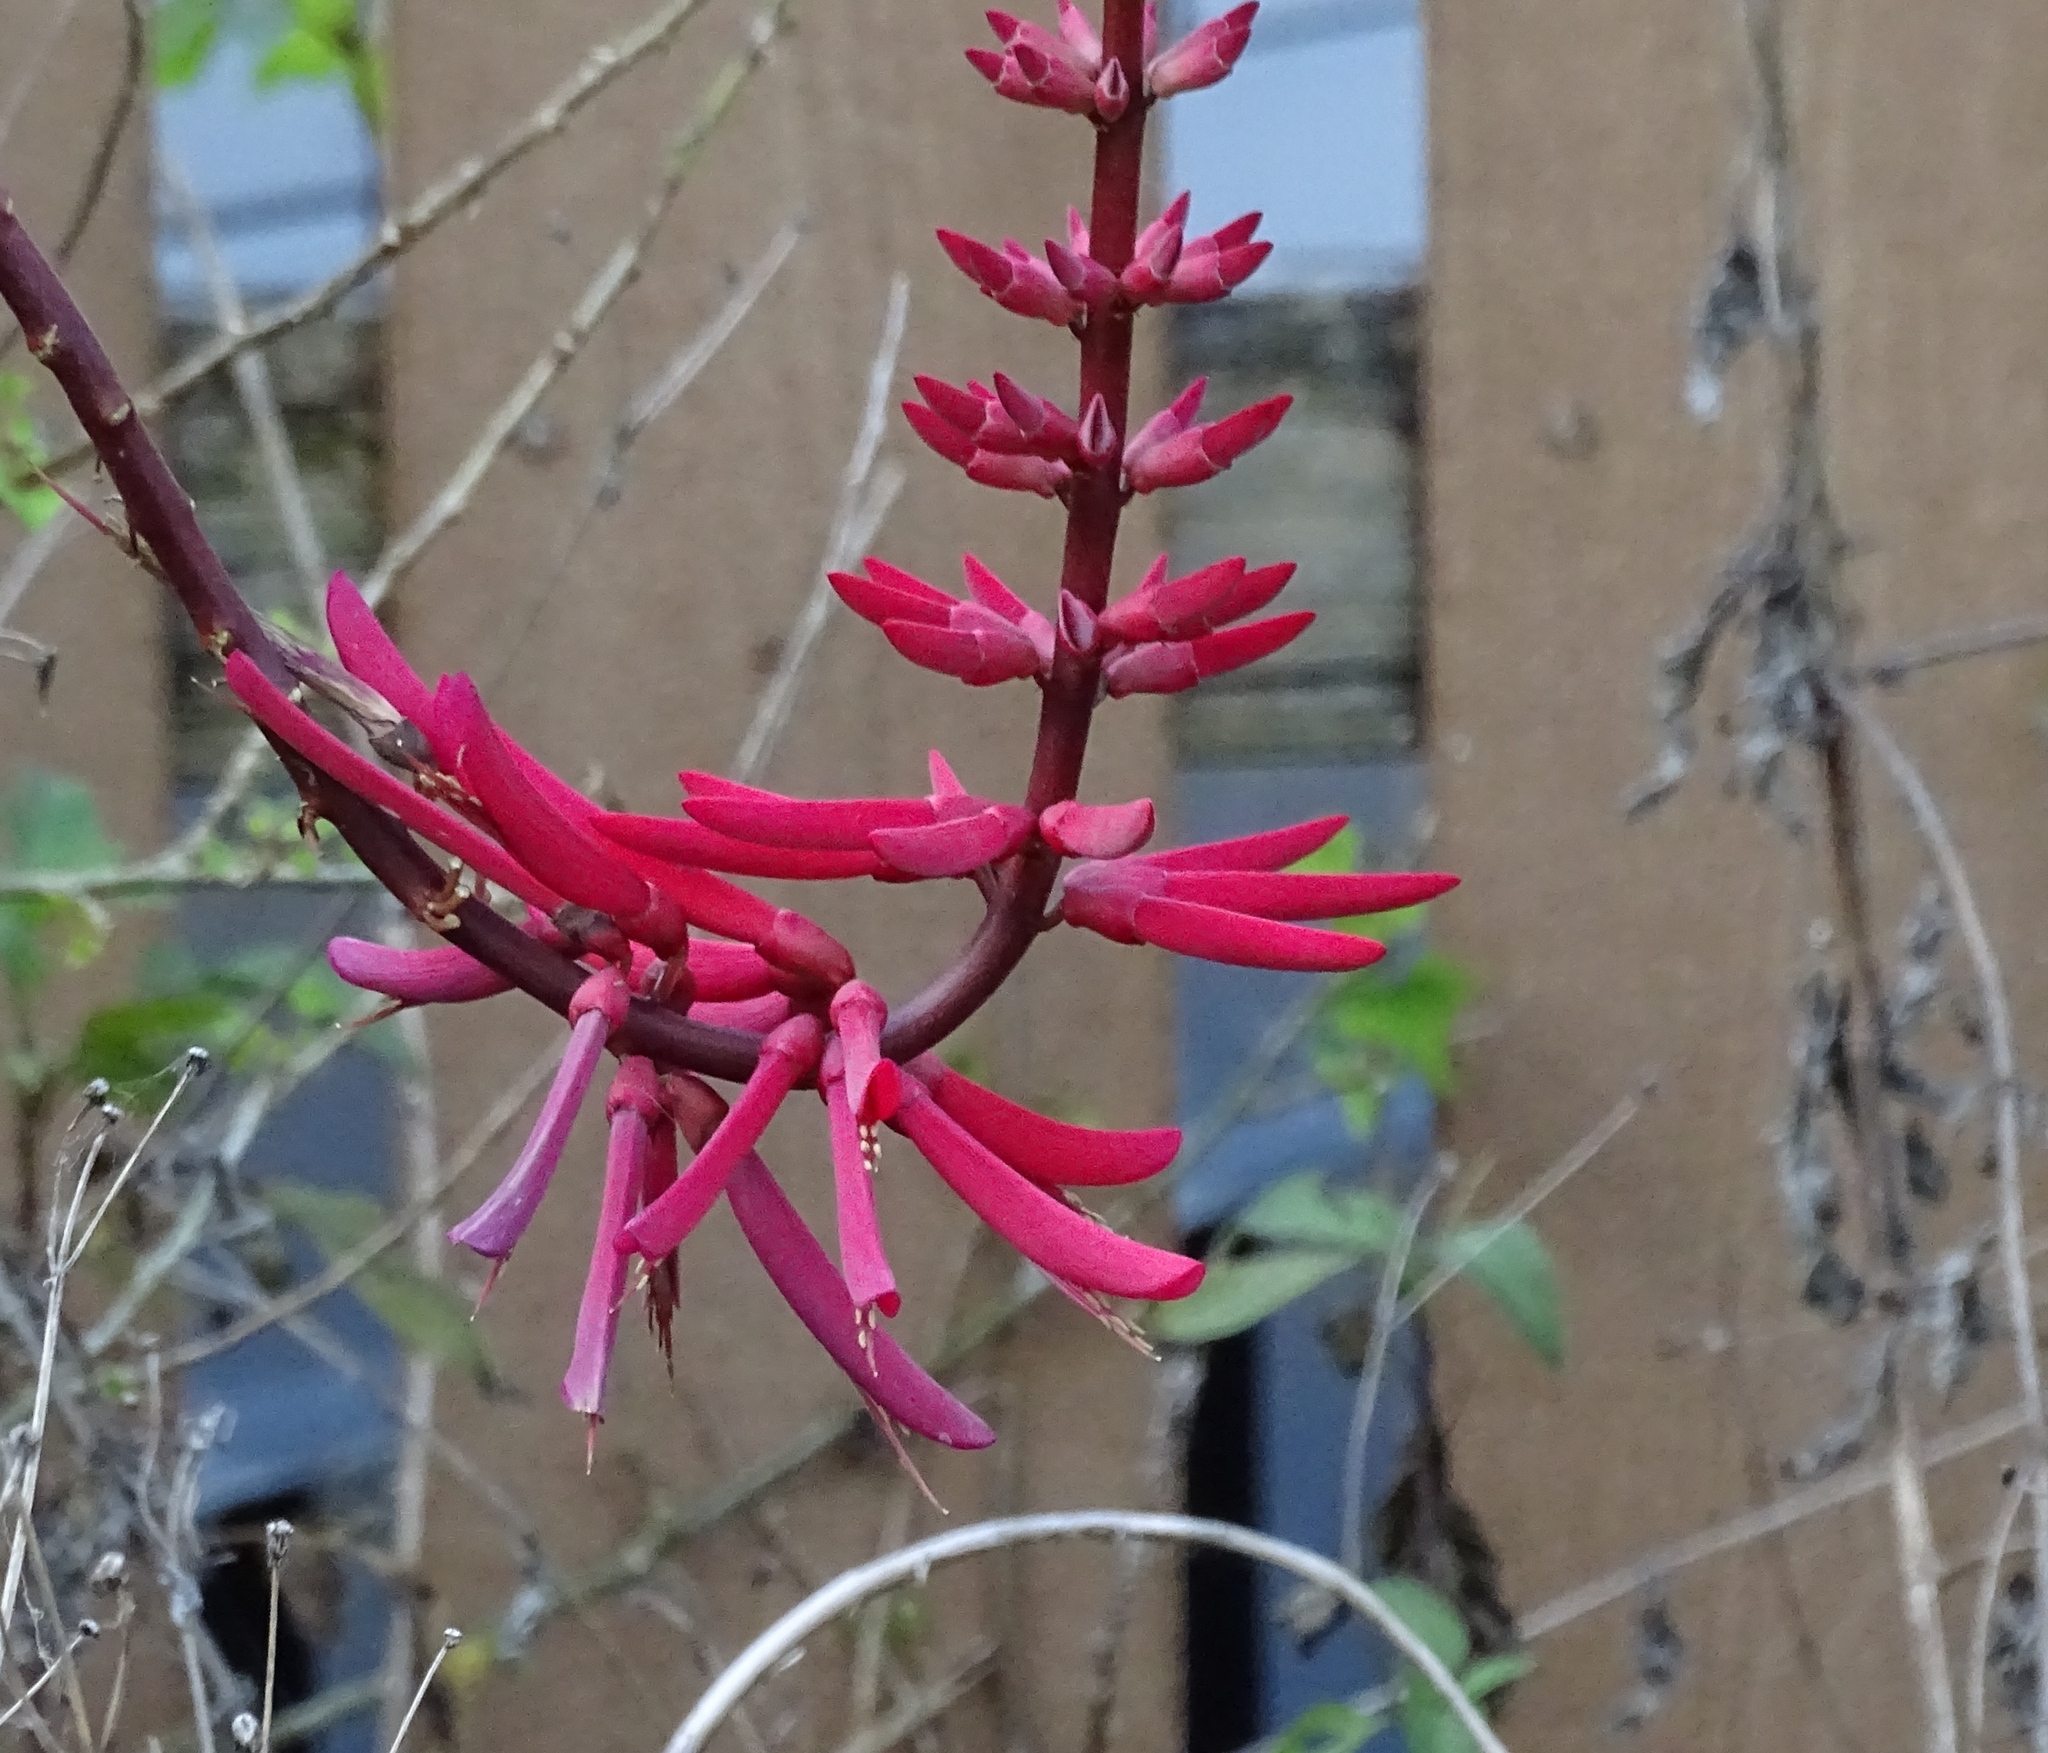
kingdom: Plantae
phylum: Tracheophyta
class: Magnoliopsida
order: Fabales
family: Fabaceae
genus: Erythrina
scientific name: Erythrina herbacea
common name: Coral-bean
